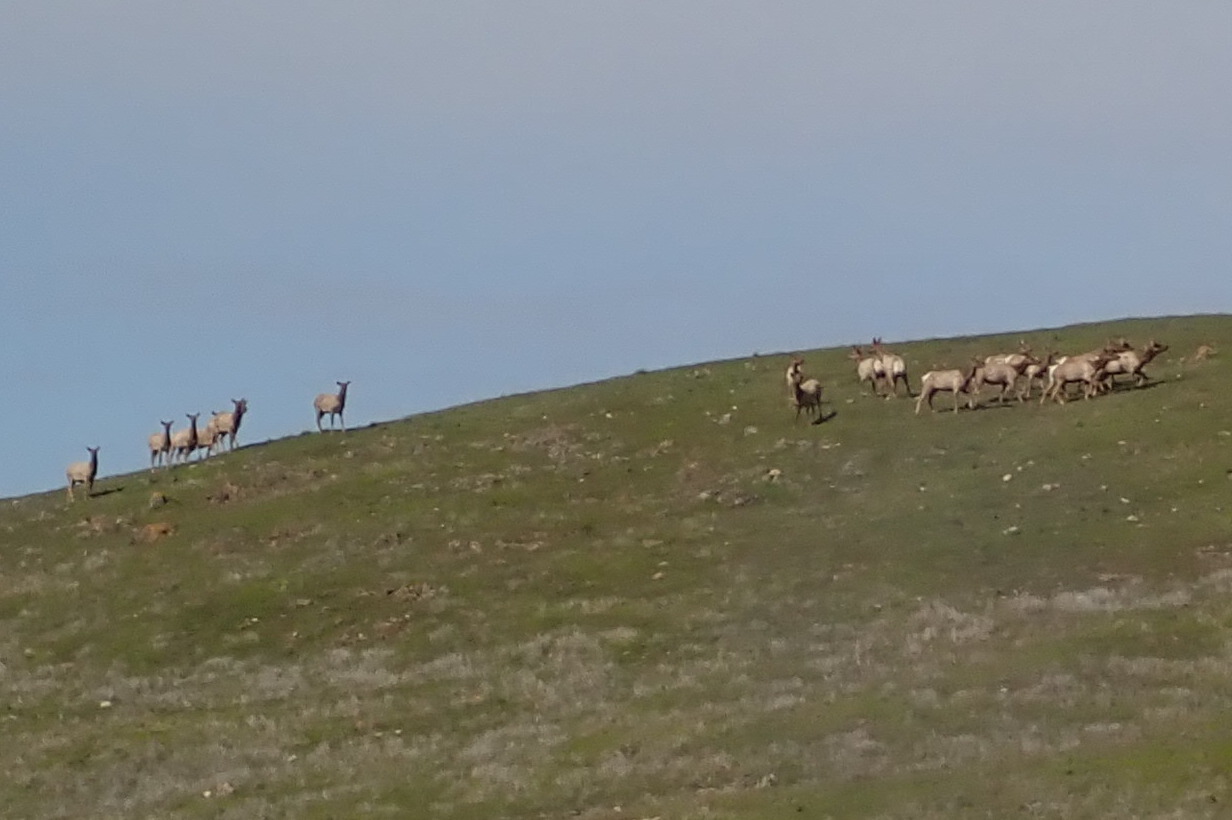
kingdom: Animalia
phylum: Chordata
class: Mammalia
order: Artiodactyla
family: Cervidae
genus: Cervus
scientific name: Cervus elaphus
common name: Red deer
